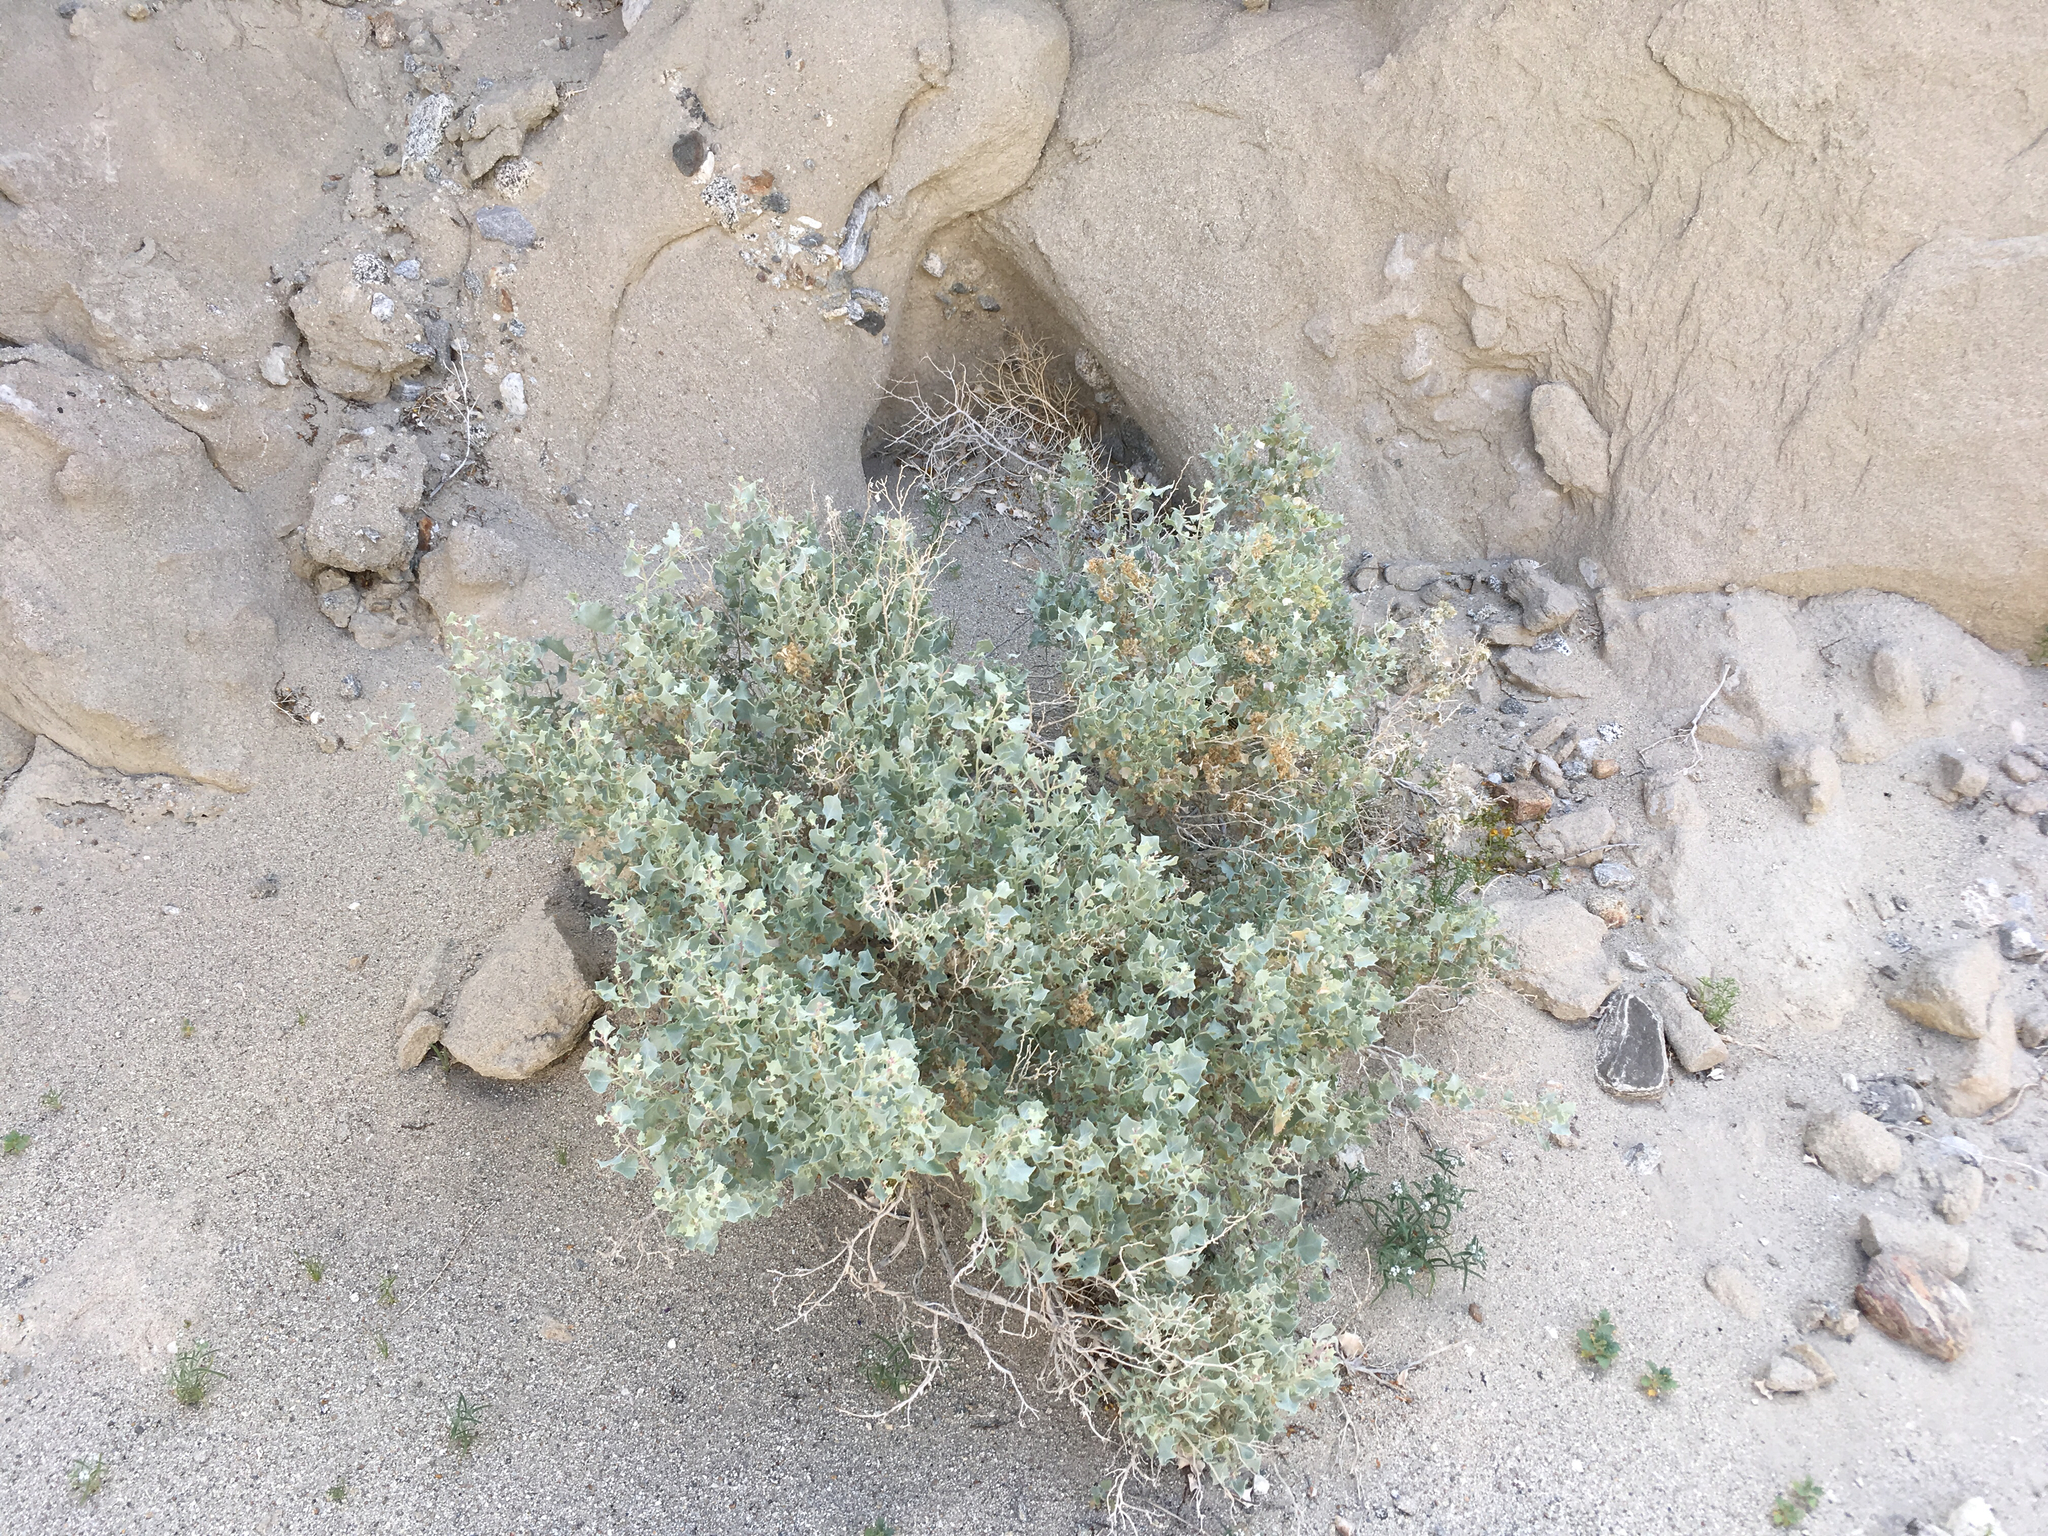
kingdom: Plantae
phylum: Tracheophyta
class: Magnoliopsida
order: Caryophyllales
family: Amaranthaceae
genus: Atriplex
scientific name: Atriplex hymenelytra
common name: Desert-holly
